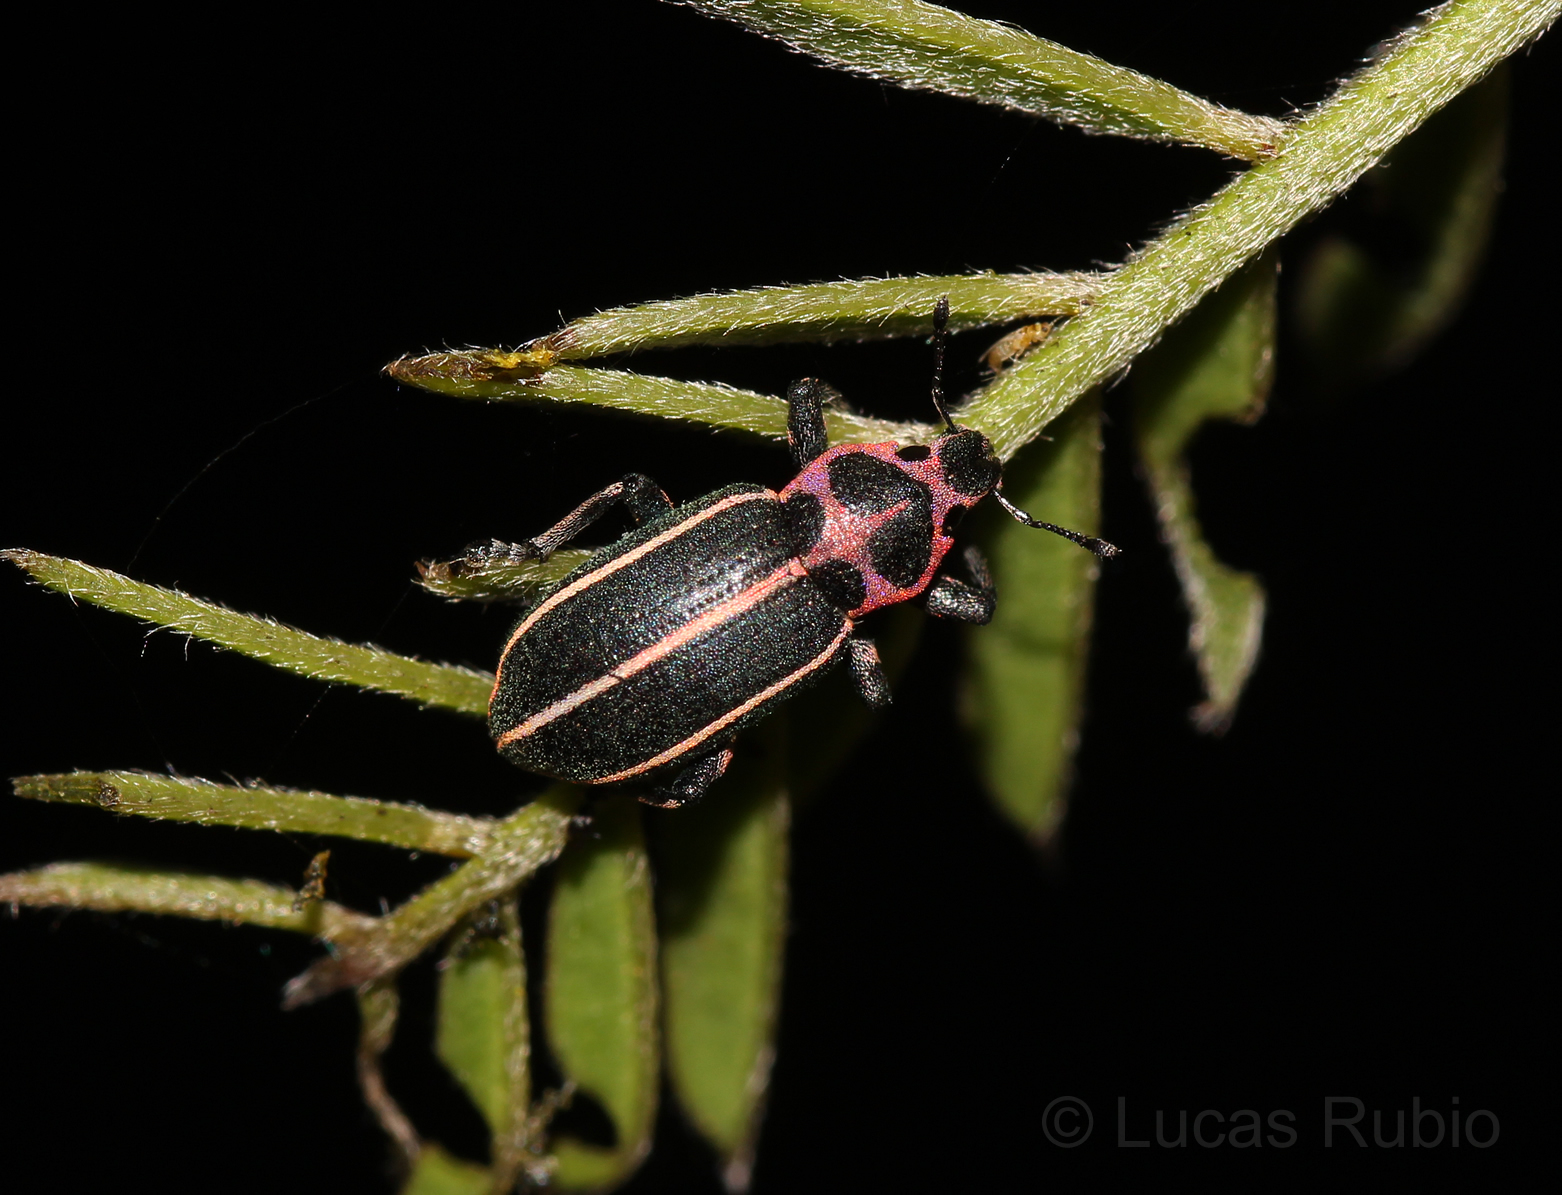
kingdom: Animalia
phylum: Arthropoda
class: Insecta
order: Coleoptera
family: Curculionidae
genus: Eudiagogus
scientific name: Eudiagogus episcopalis
